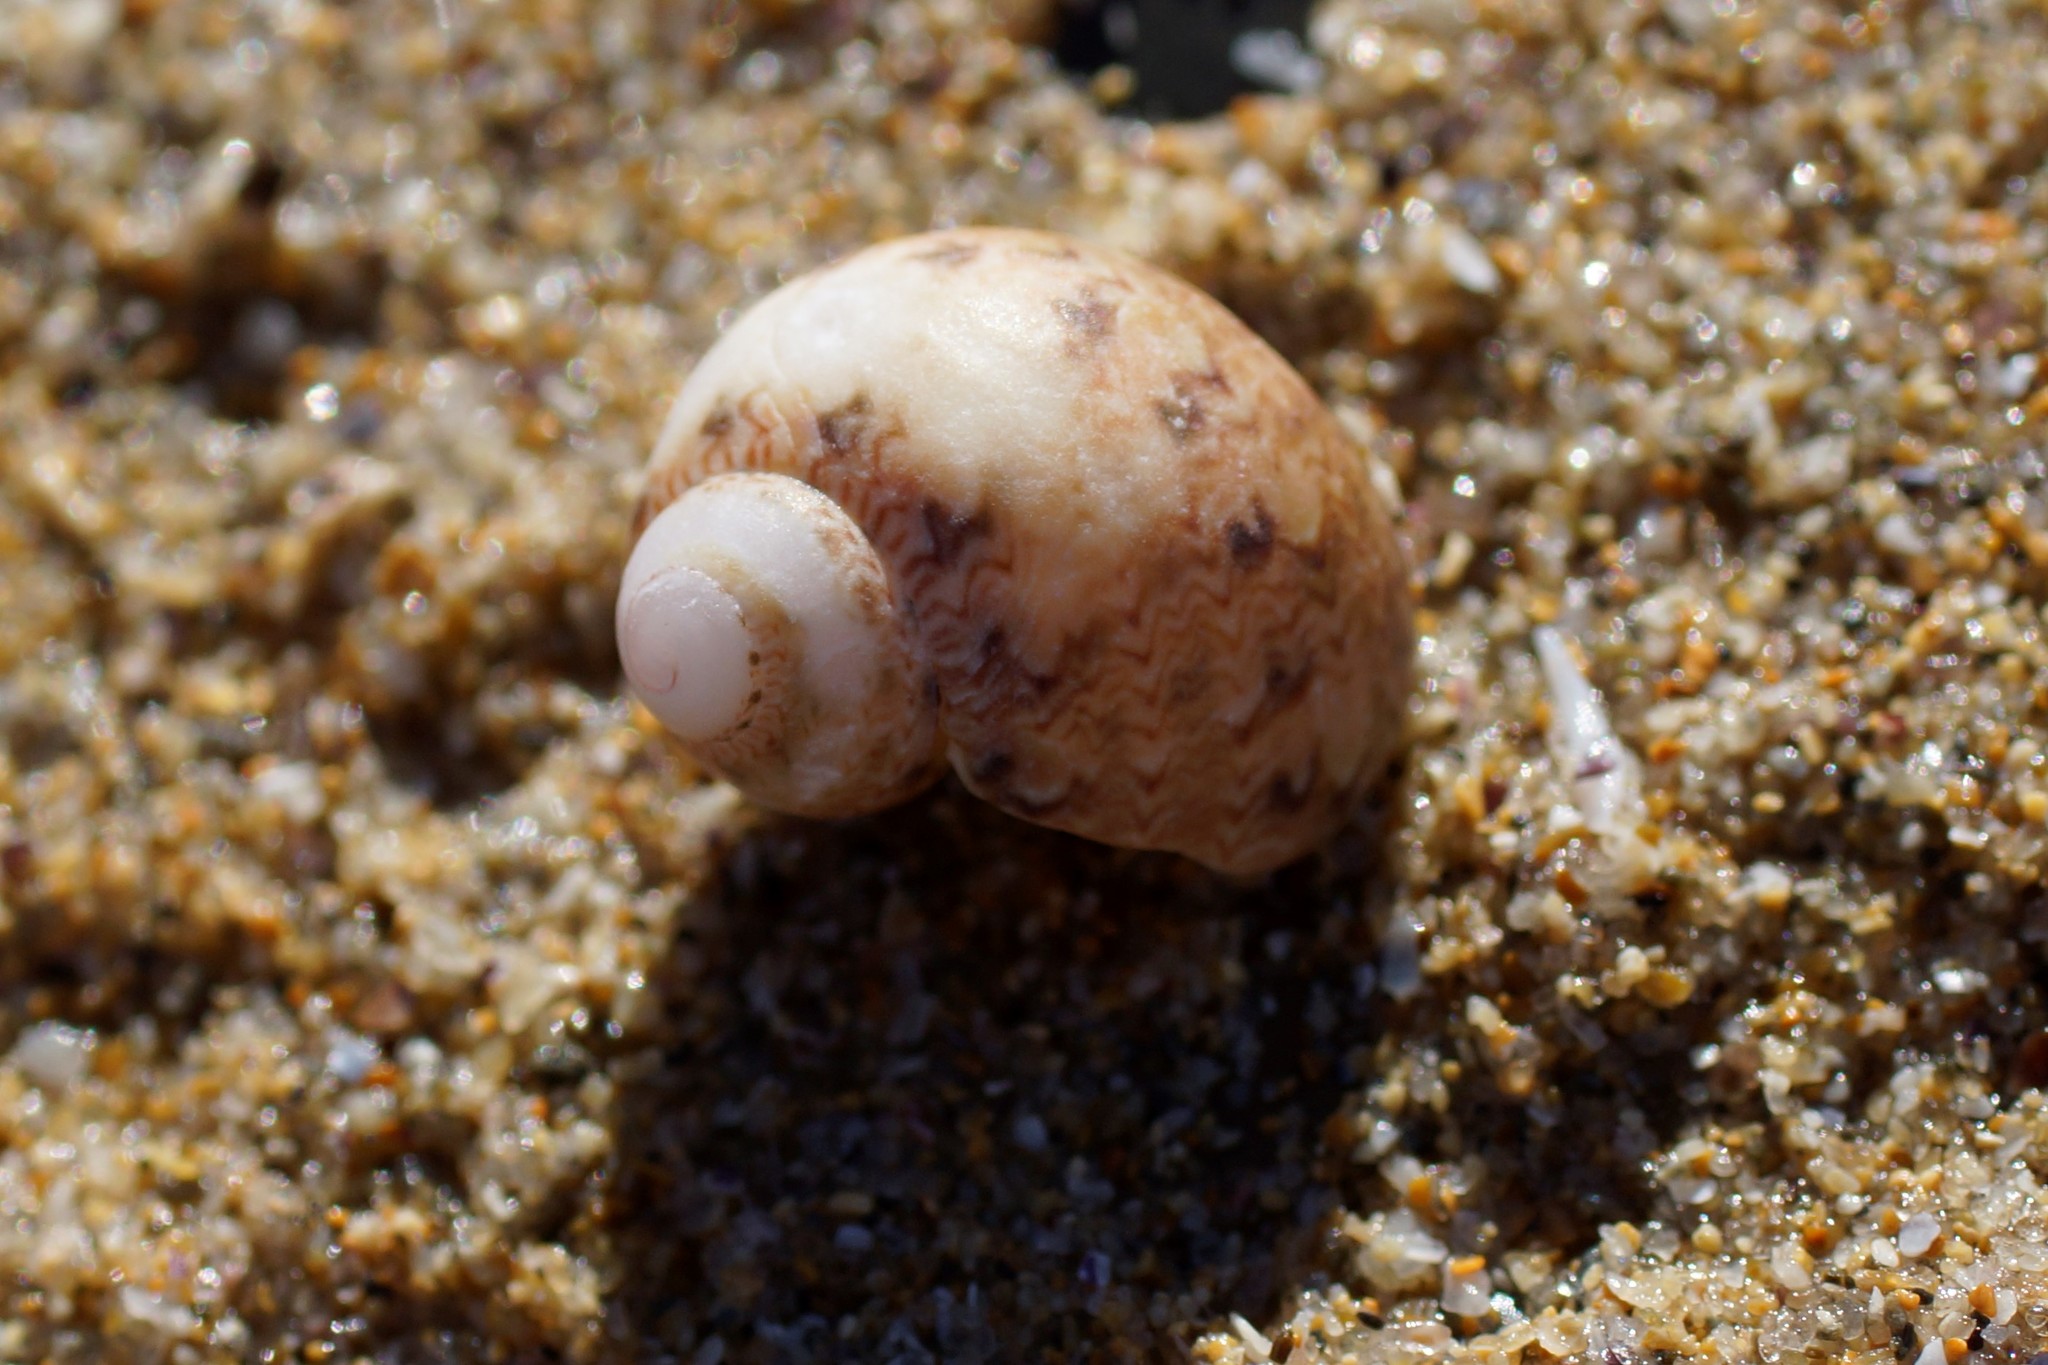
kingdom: Animalia
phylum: Mollusca
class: Gastropoda
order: Trochida
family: Phasianellidae
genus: Phasianella
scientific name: Phasianella ventricosa
